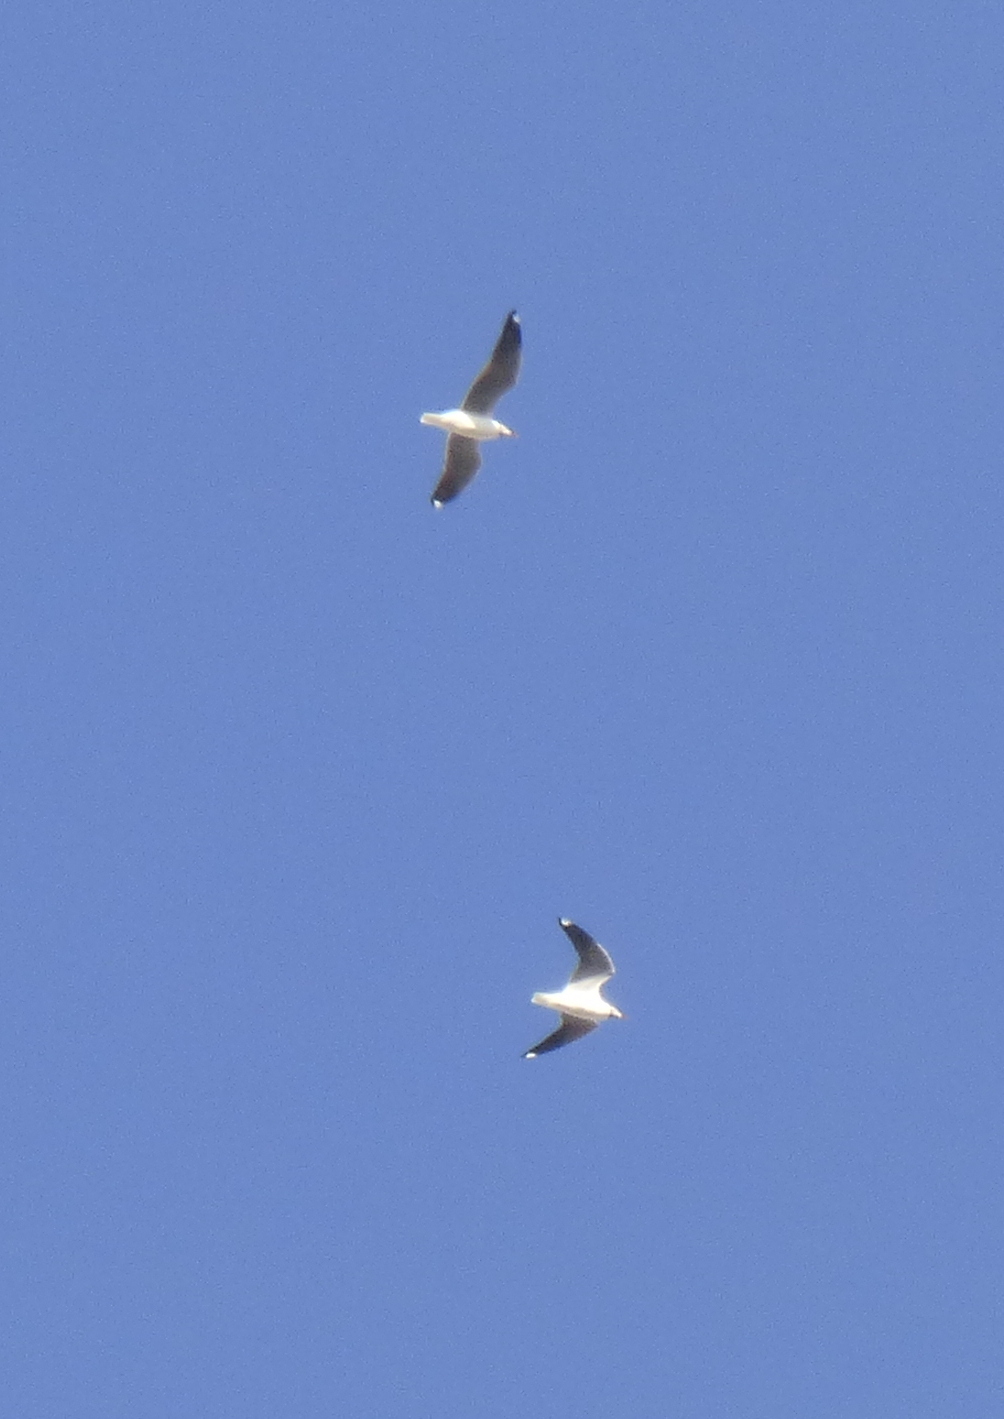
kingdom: Animalia
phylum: Chordata
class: Aves
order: Charadriiformes
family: Laridae
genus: Chroicocephalus
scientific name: Chroicocephalus cirrocephalus
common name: Grey-headed gull
